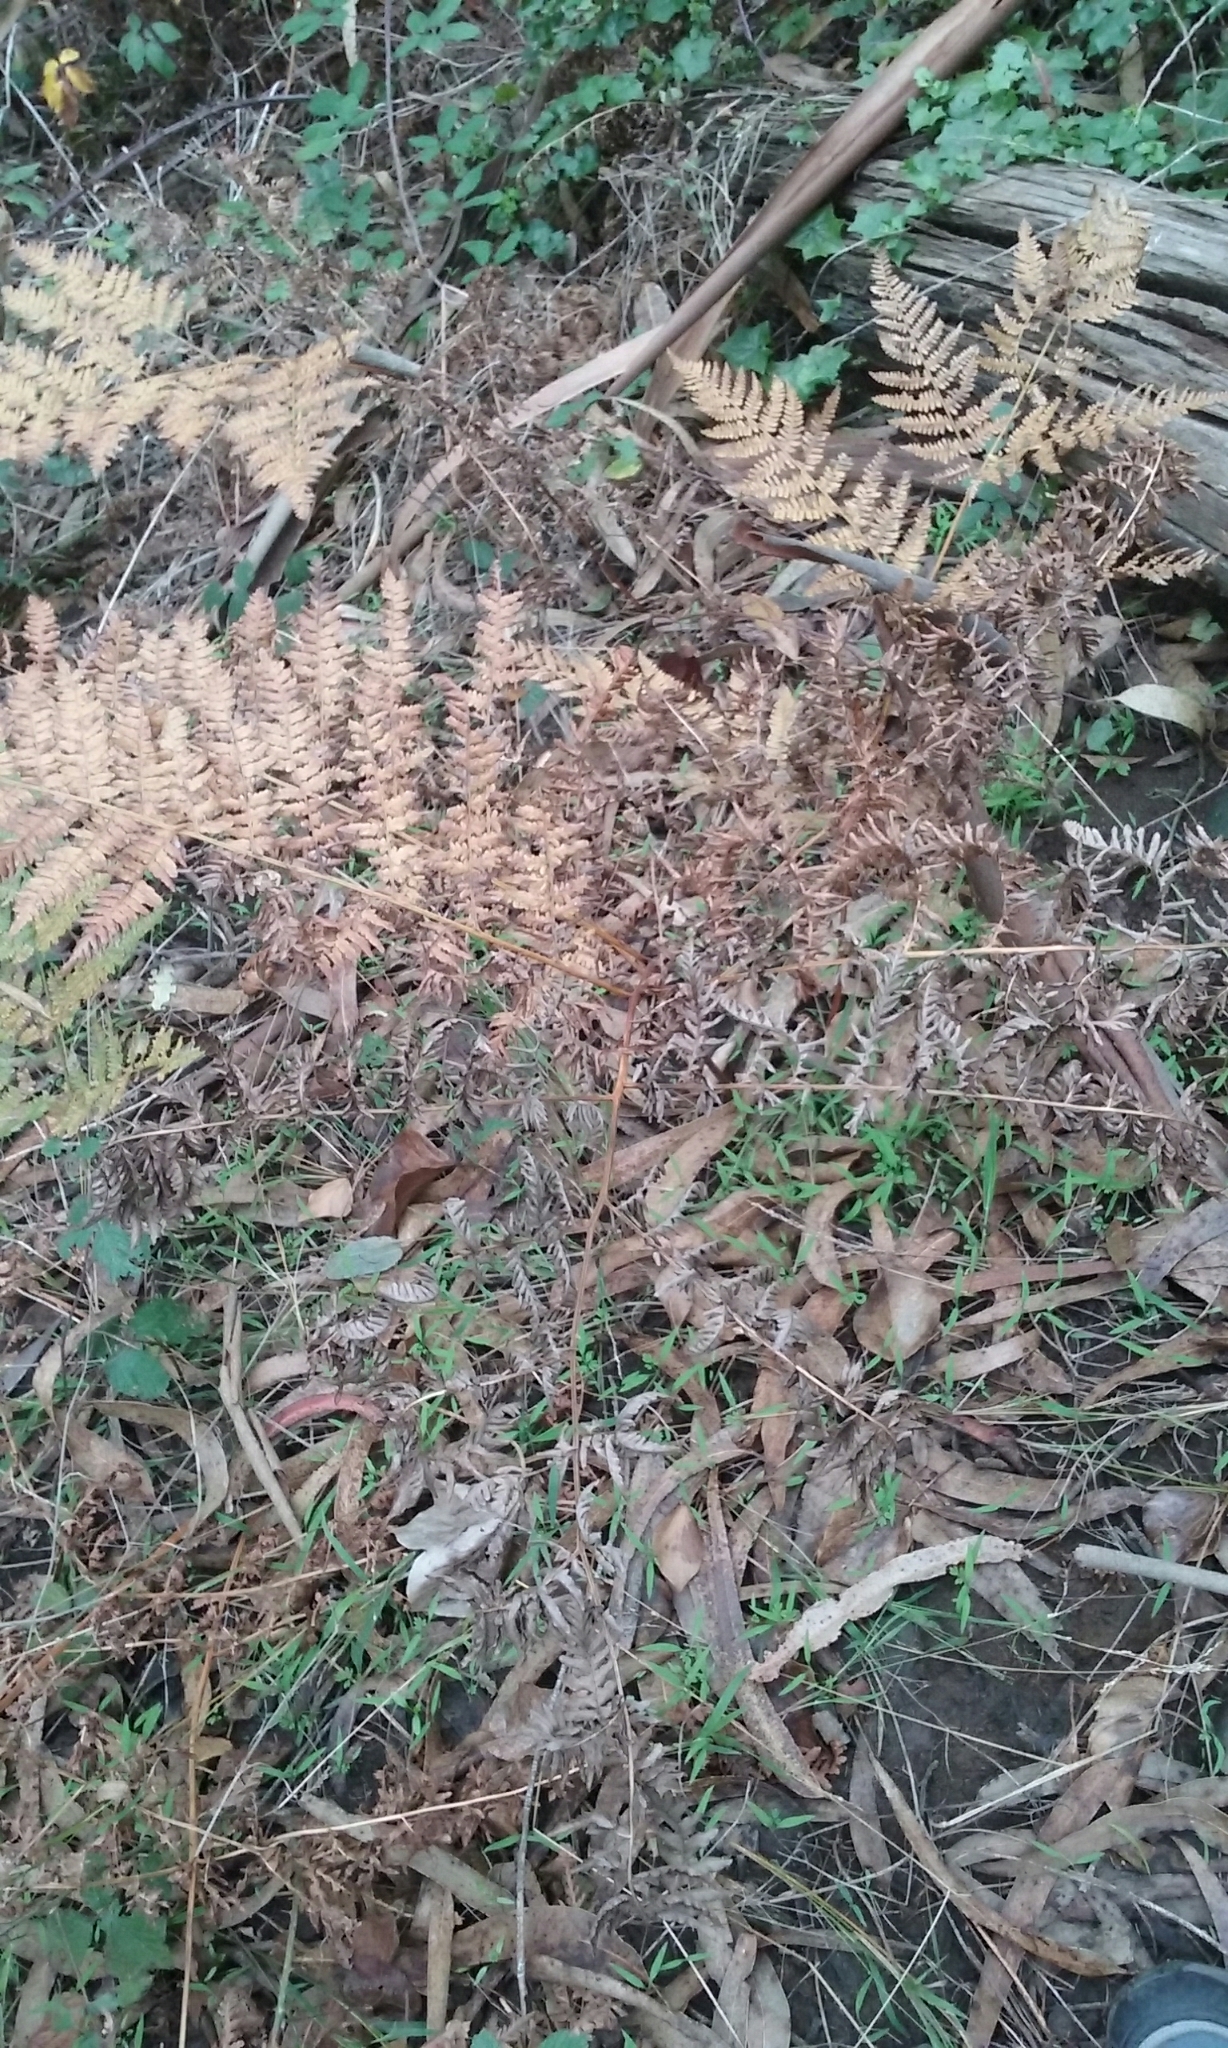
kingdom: Plantae
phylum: Tracheophyta
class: Polypodiopsida
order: Polypodiales
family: Dennstaedtiaceae
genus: Pteridium
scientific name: Pteridium aquilinum
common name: Bracken
